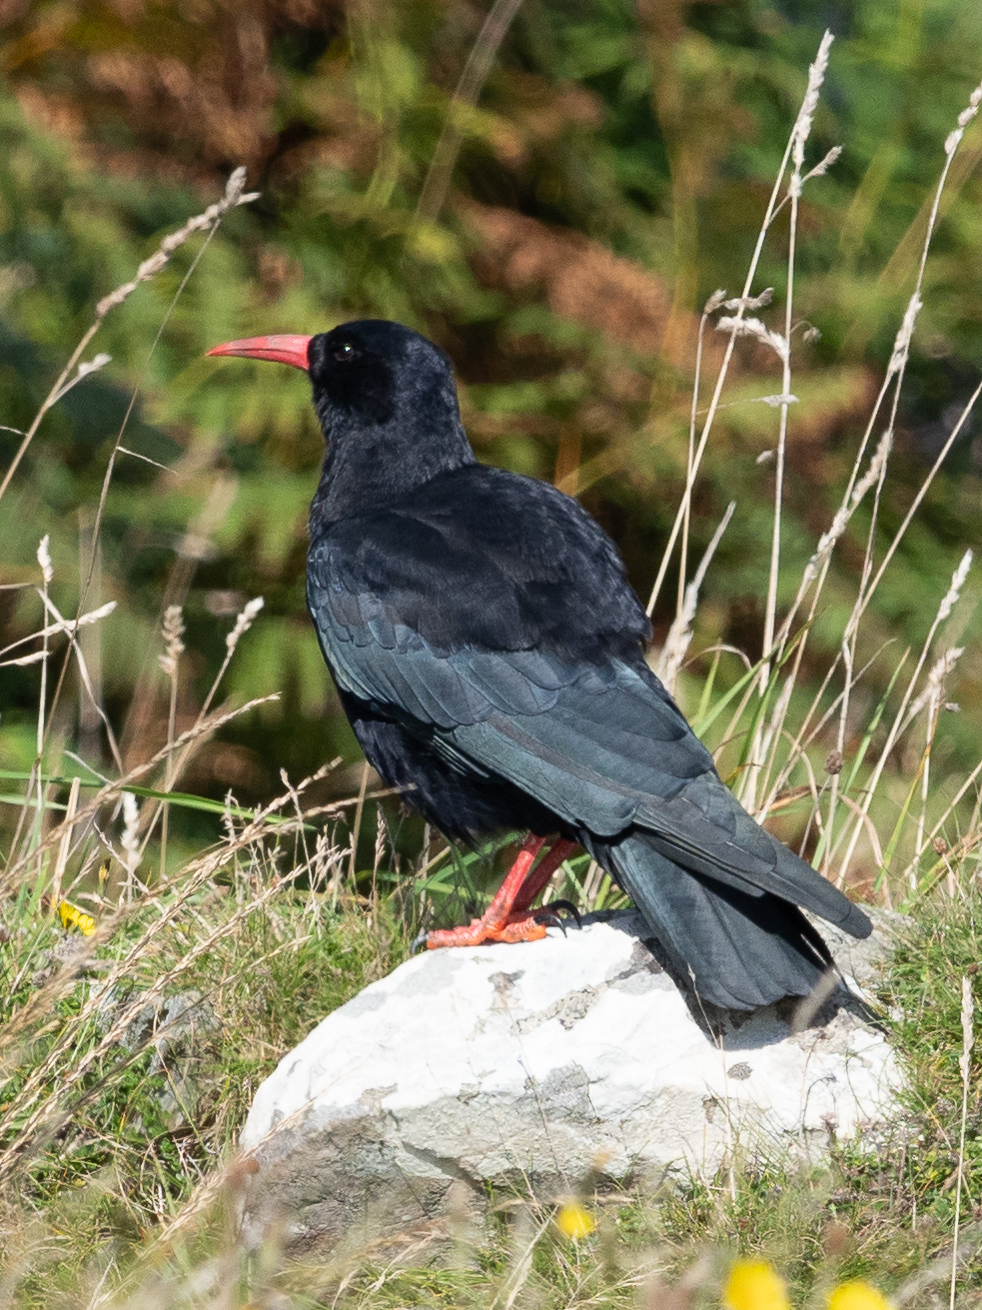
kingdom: Animalia
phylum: Chordata
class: Aves
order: Passeriformes
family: Corvidae
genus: Pyrrhocorax
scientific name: Pyrrhocorax pyrrhocorax
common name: Red-billed chough
